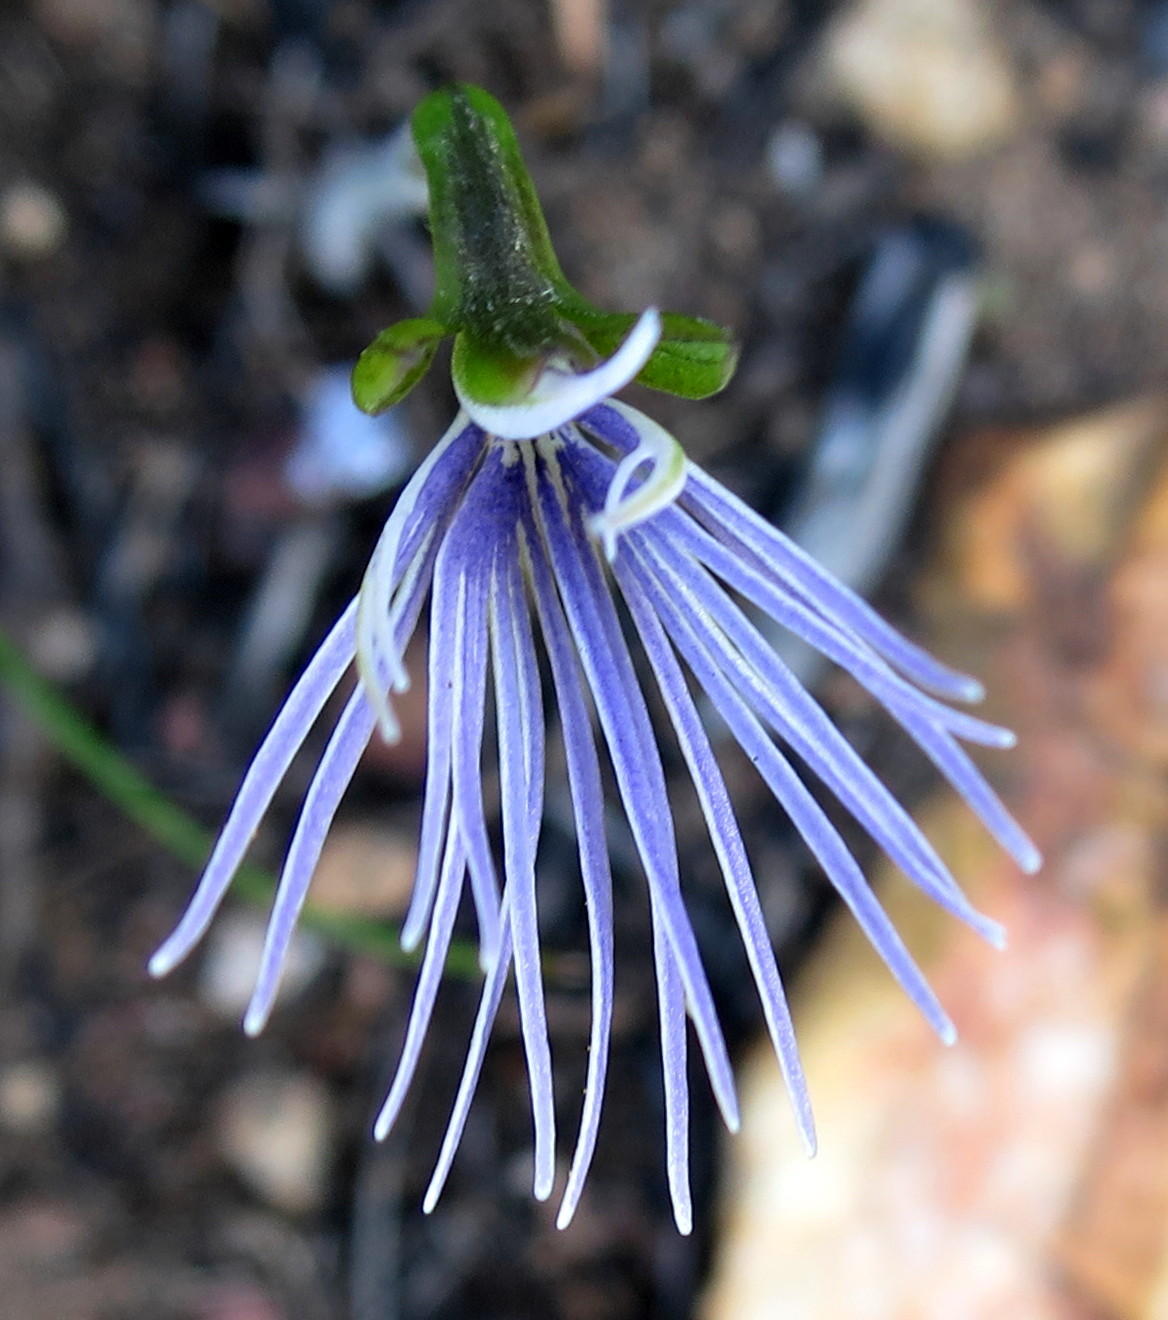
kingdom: Plantae
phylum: Tracheophyta
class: Liliopsida
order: Asparagales
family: Orchidaceae
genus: Holothrix
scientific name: Holothrix burmanniana
